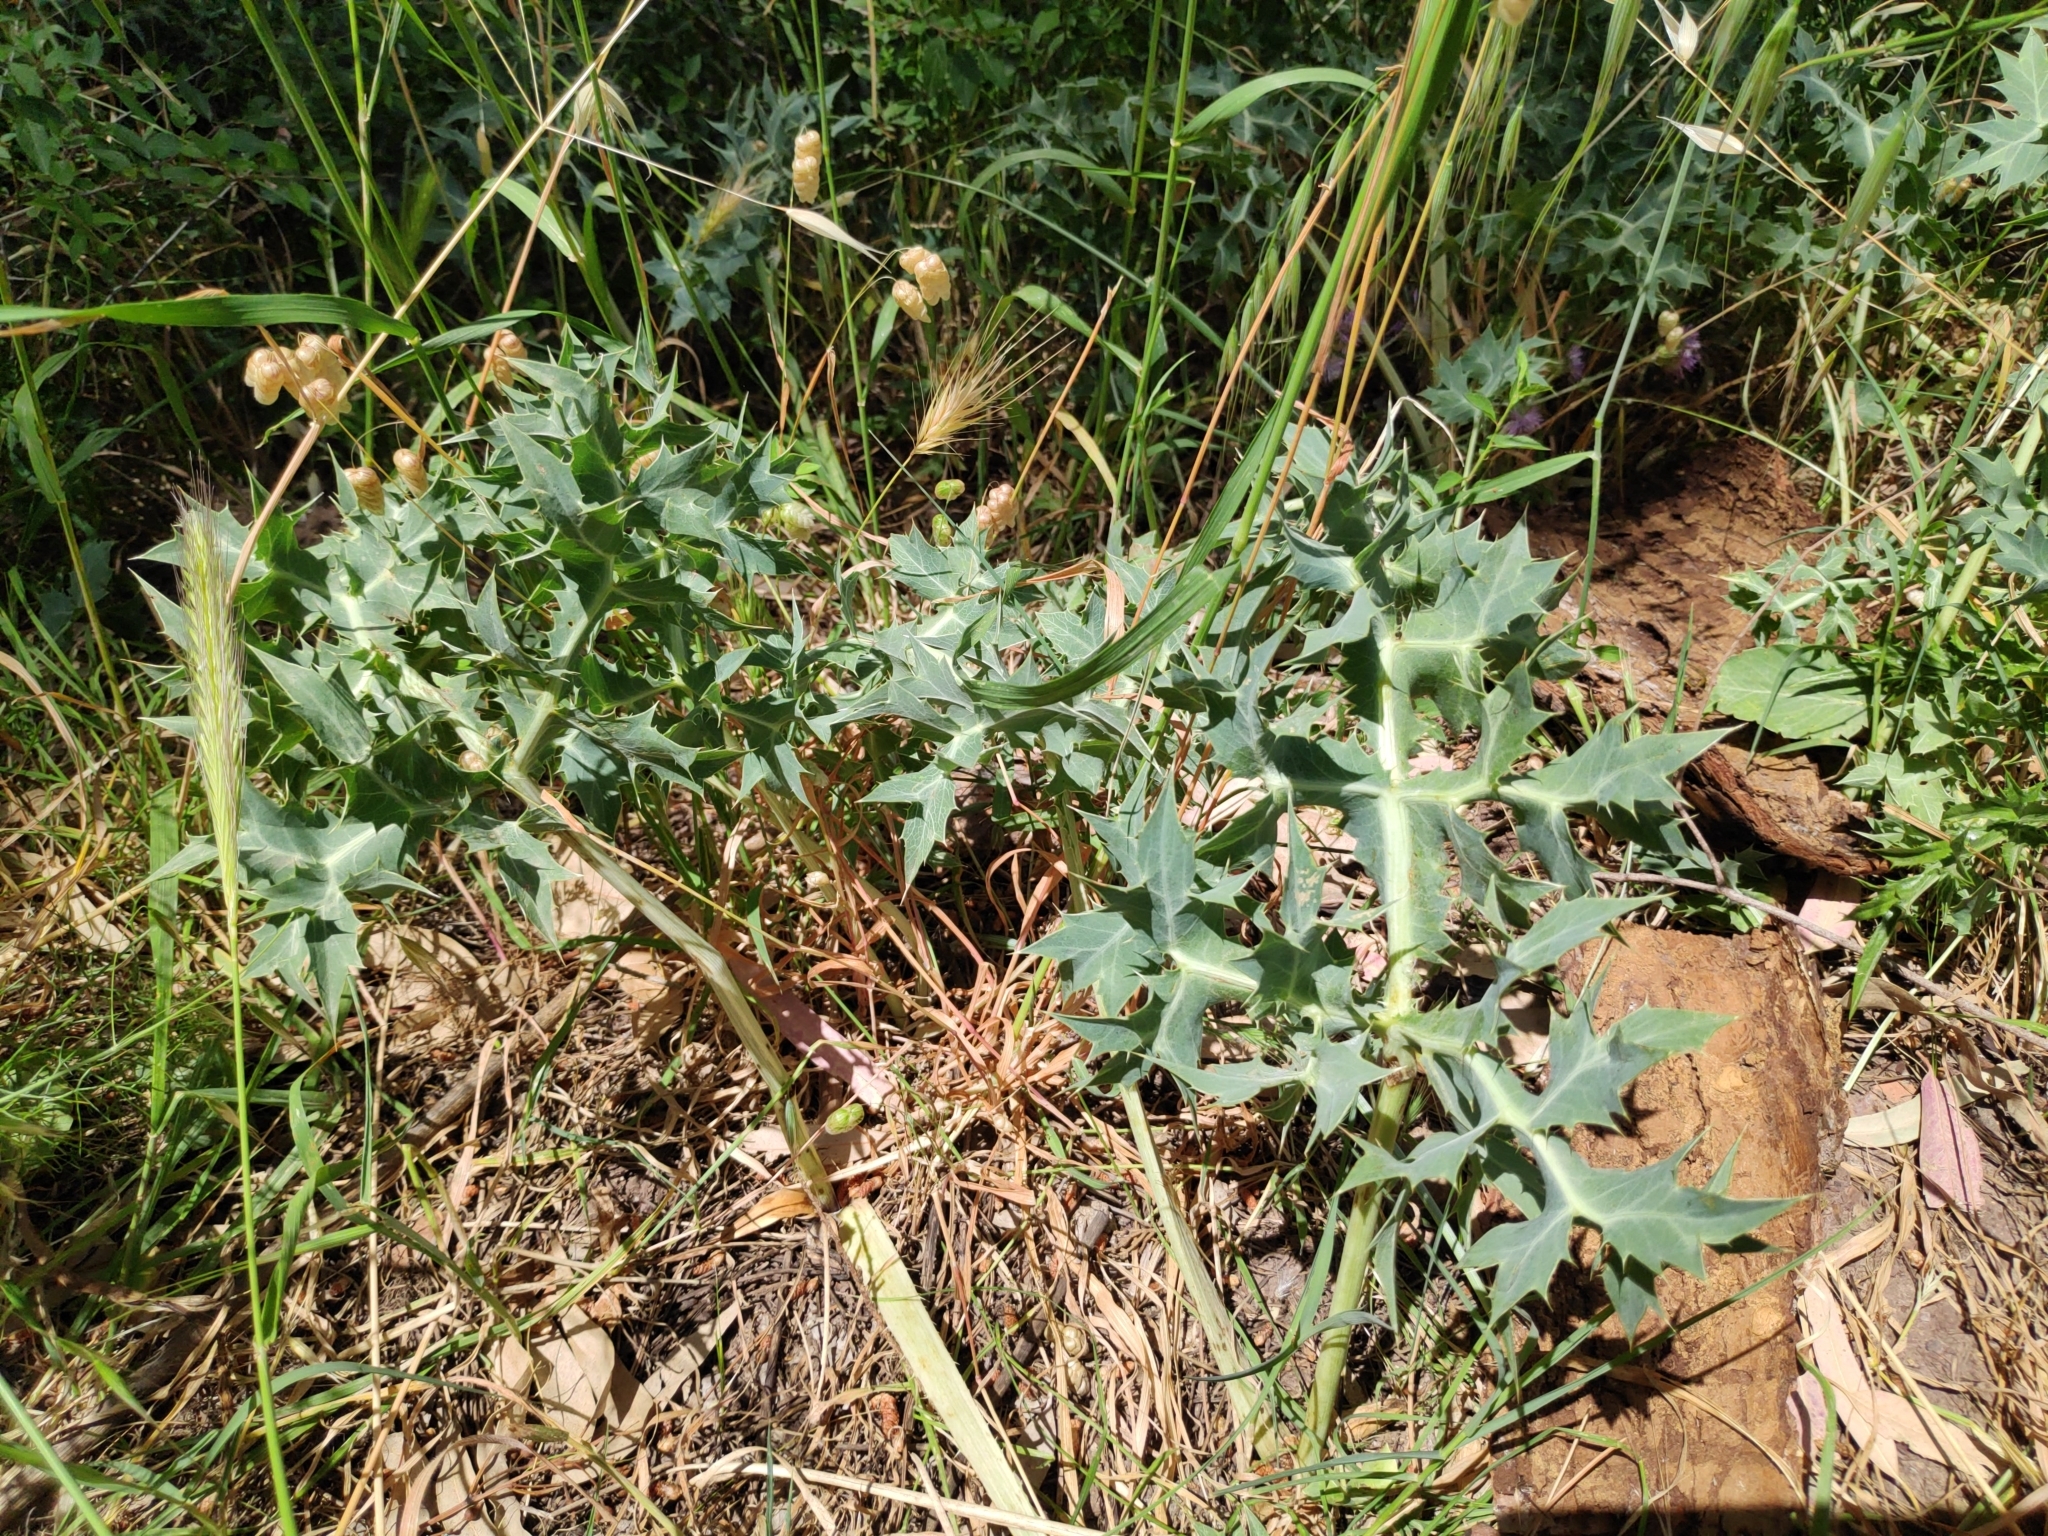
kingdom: Plantae
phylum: Tracheophyta
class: Magnoliopsida
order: Apiales
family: Apiaceae
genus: Eryngium
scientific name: Eryngium campestre
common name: Field eryngo
